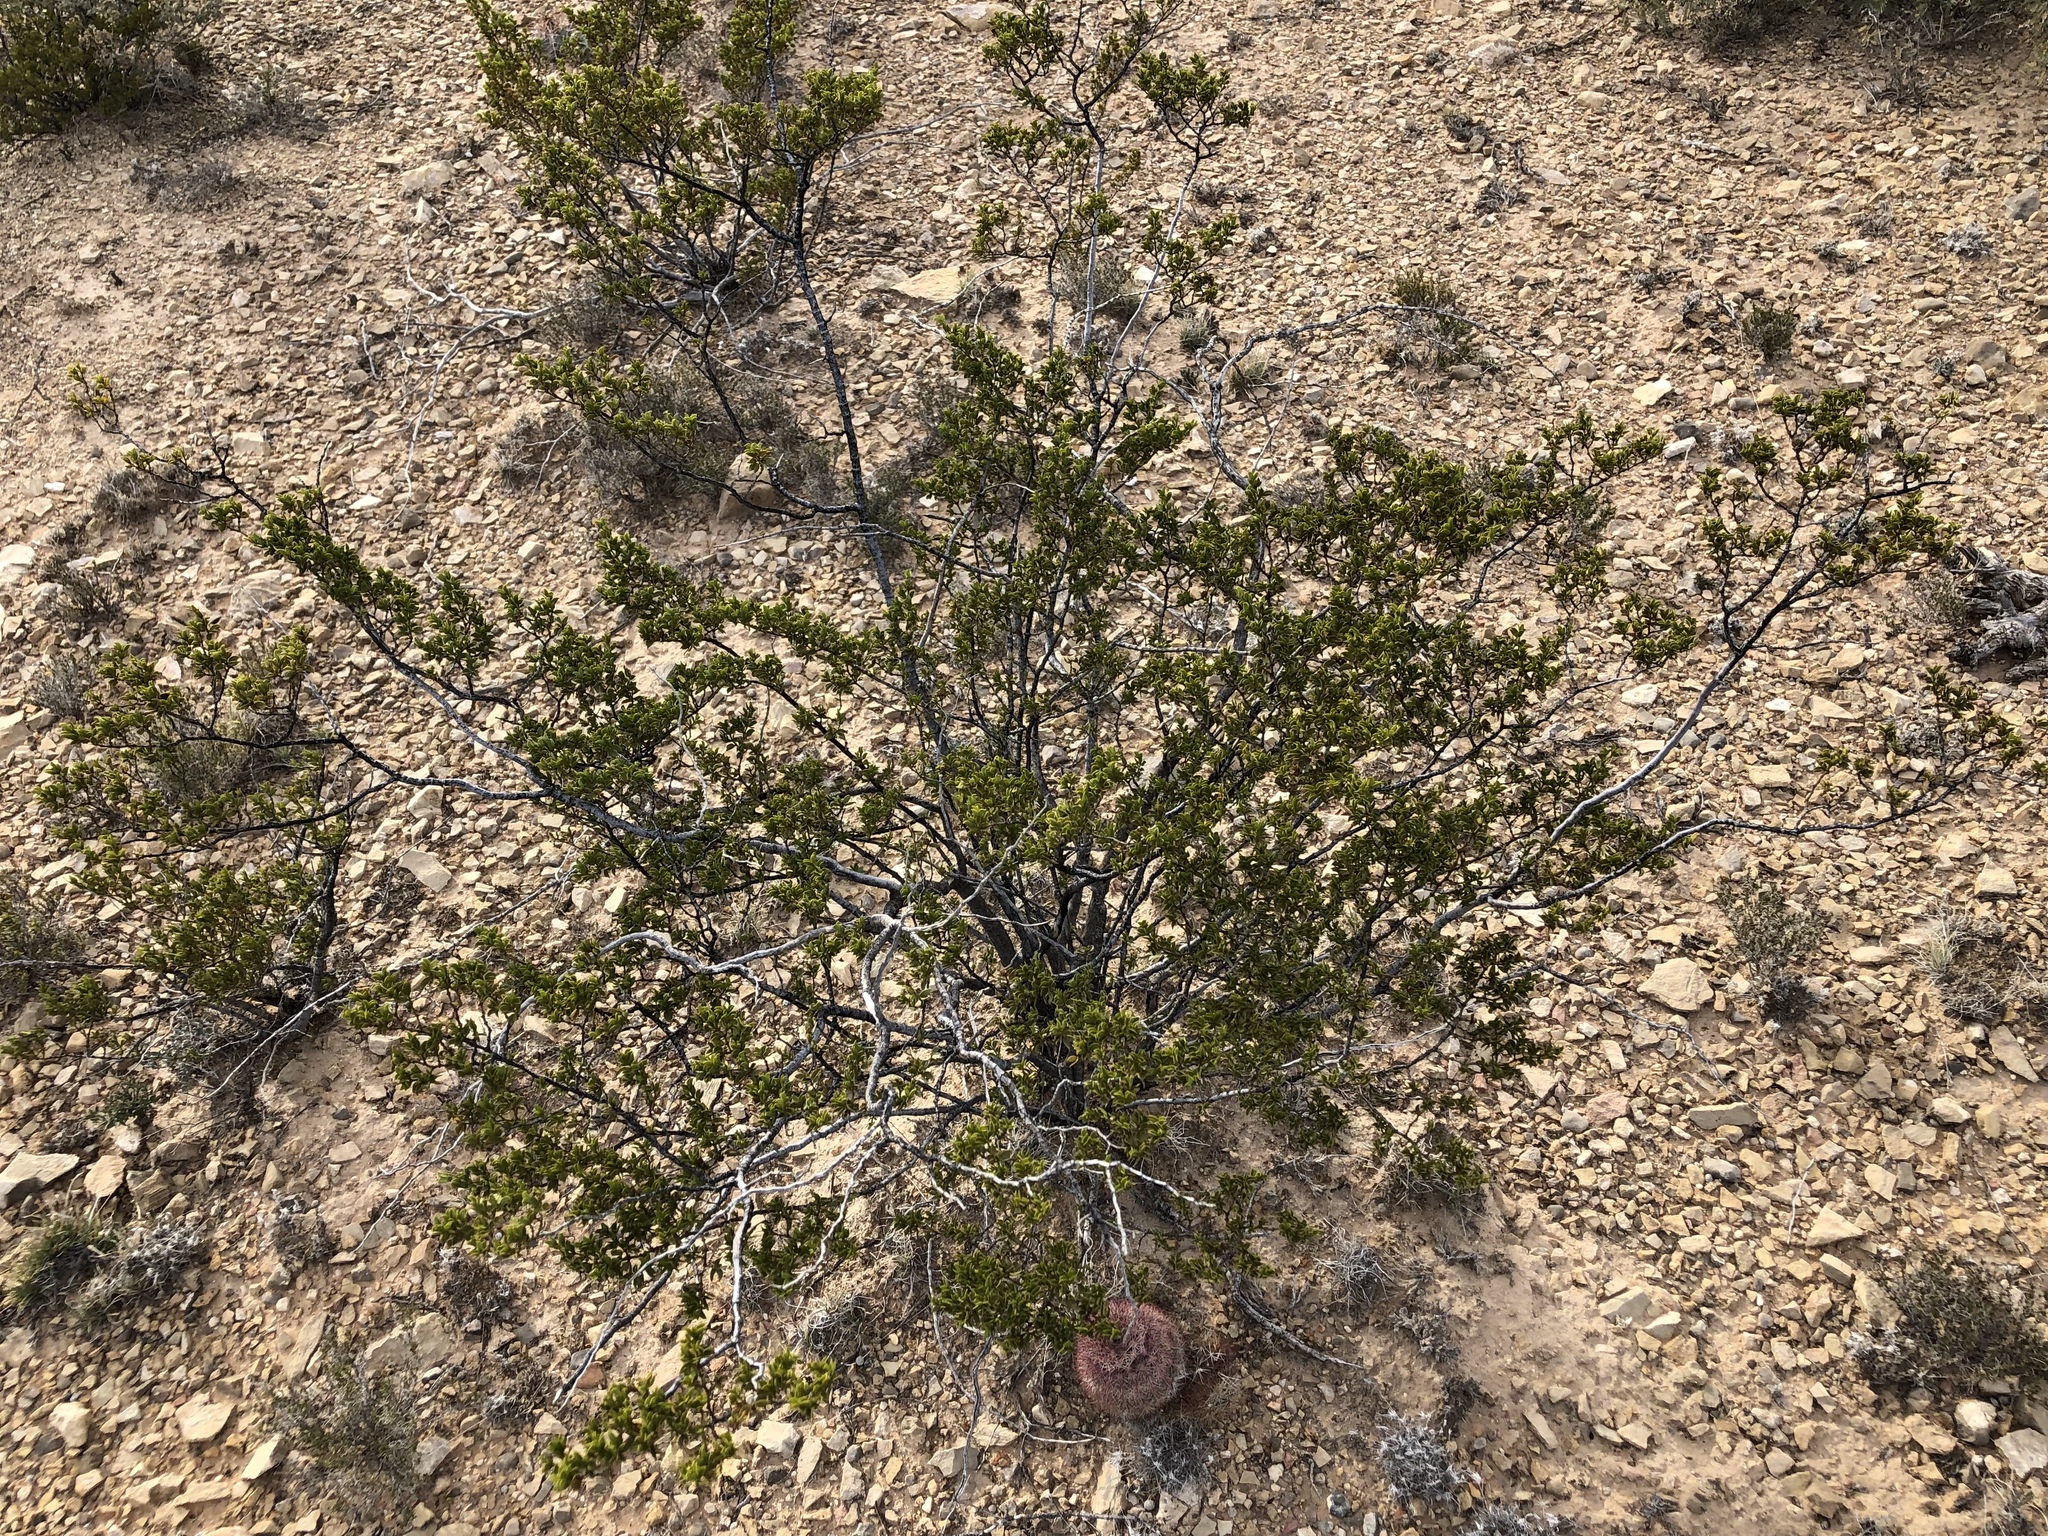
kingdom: Plantae
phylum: Tracheophyta
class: Magnoliopsida
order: Zygophyllales
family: Zygophyllaceae
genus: Larrea
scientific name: Larrea tridentata
